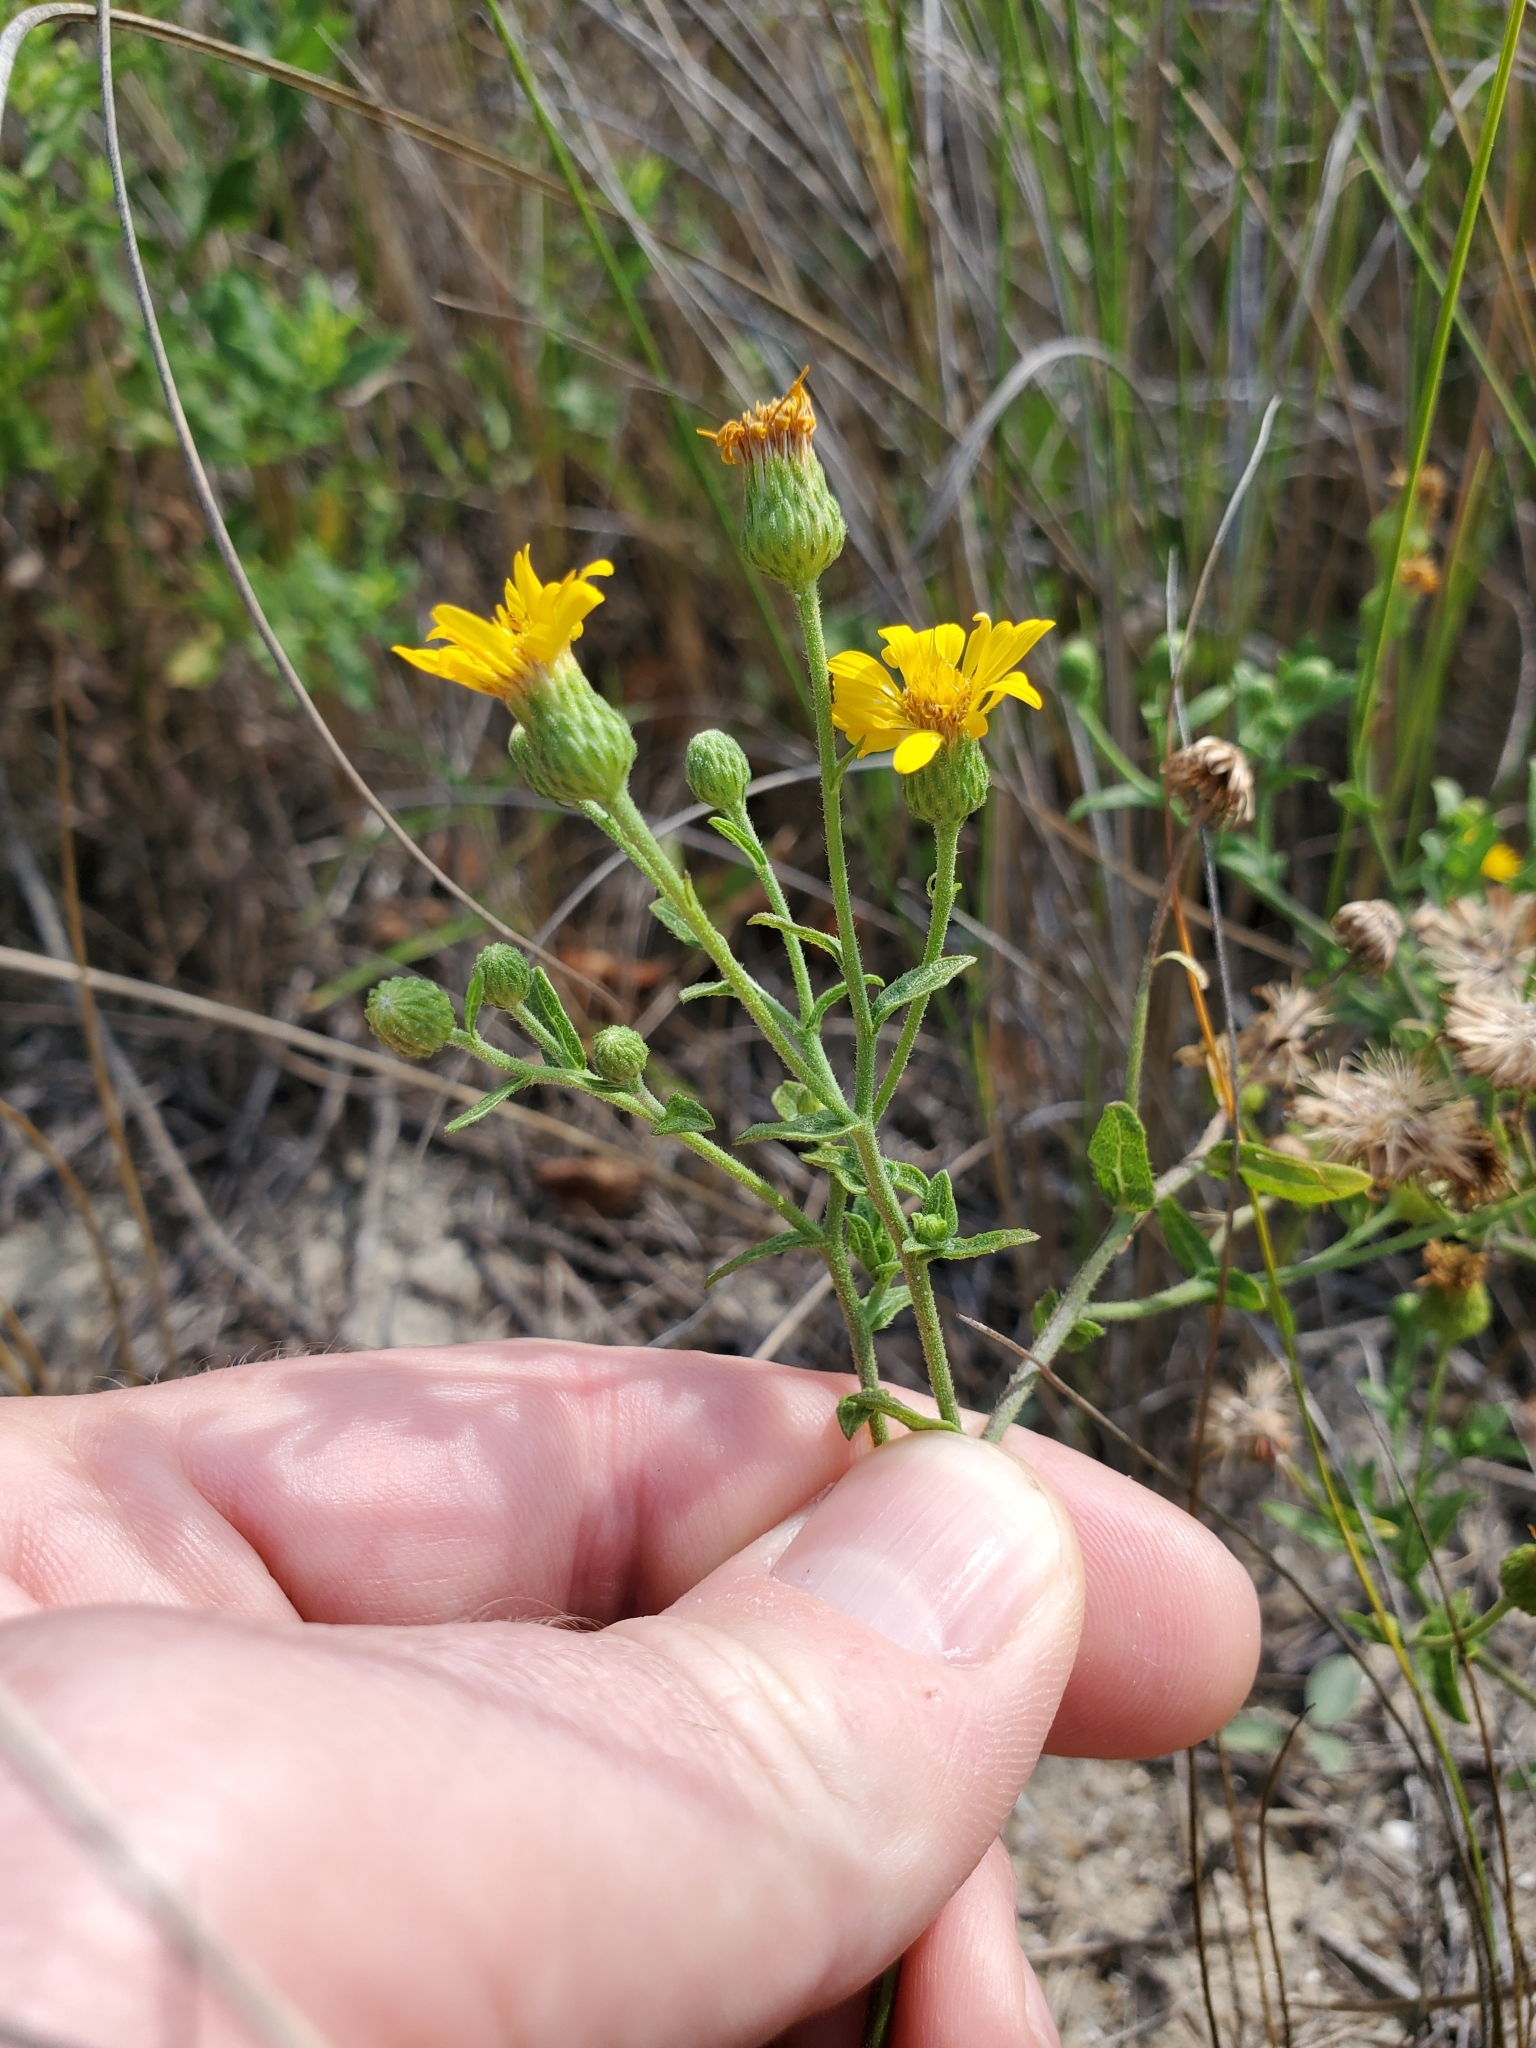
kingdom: Plantae
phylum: Tracheophyta
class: Magnoliopsida
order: Asterales
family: Asteraceae
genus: Heterotheca
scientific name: Heterotheca subaxillaris
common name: Camphorweed
